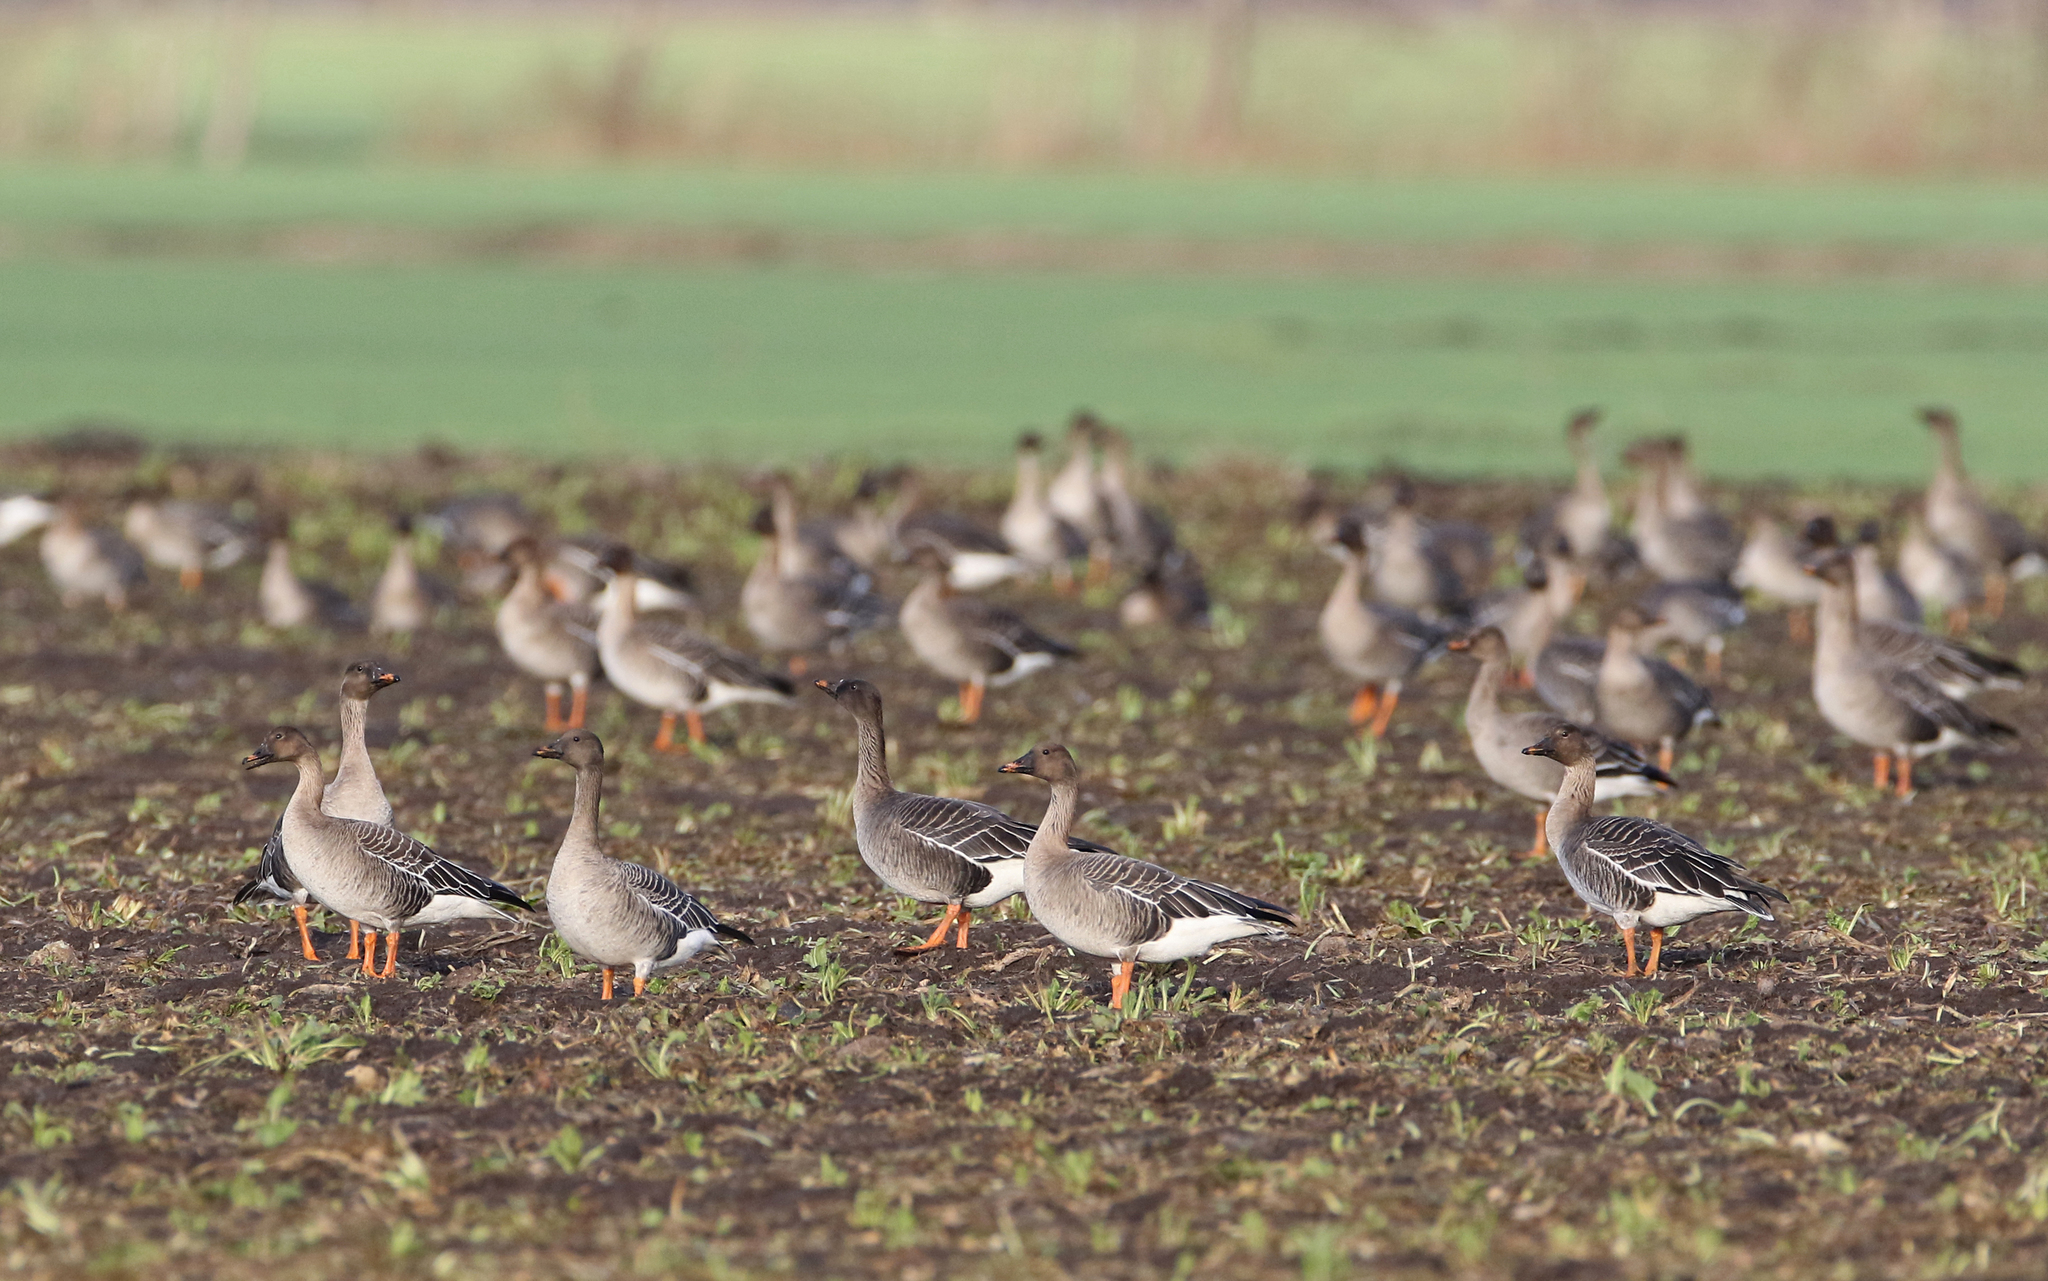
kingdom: Animalia
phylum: Chordata
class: Aves
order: Anseriformes
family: Anatidae
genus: Anser
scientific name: Anser serrirostris
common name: Tundra bean goose
